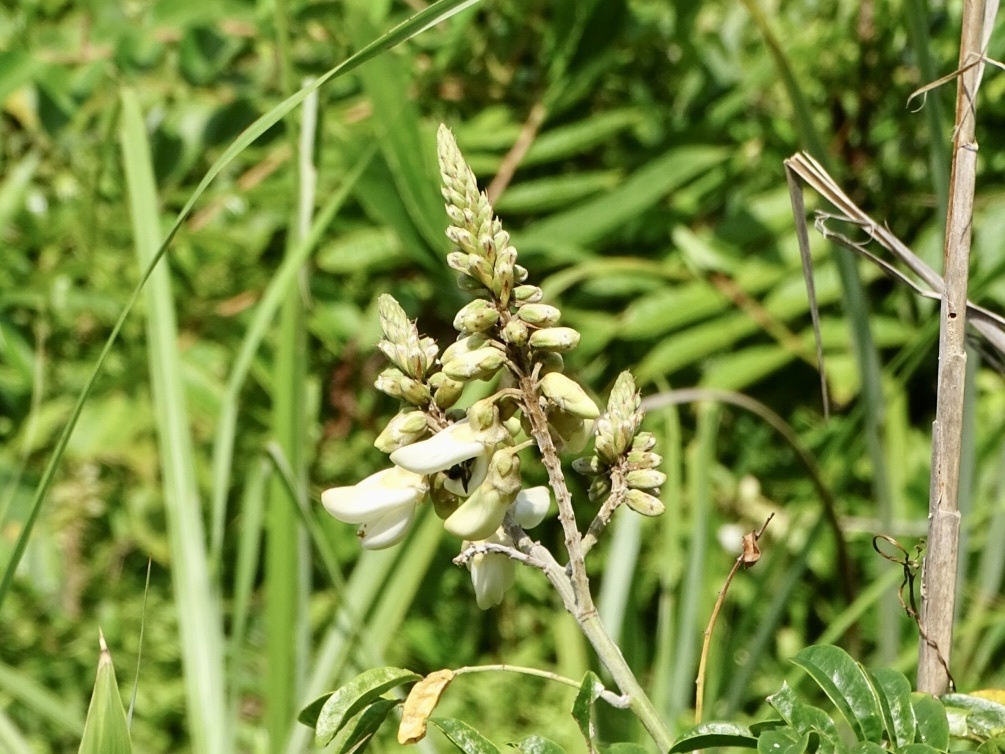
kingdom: Plantae
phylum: Tracheophyta
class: Magnoliopsida
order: Fabales
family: Fabaceae
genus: Nanhaia
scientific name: Nanhaia speciosa
